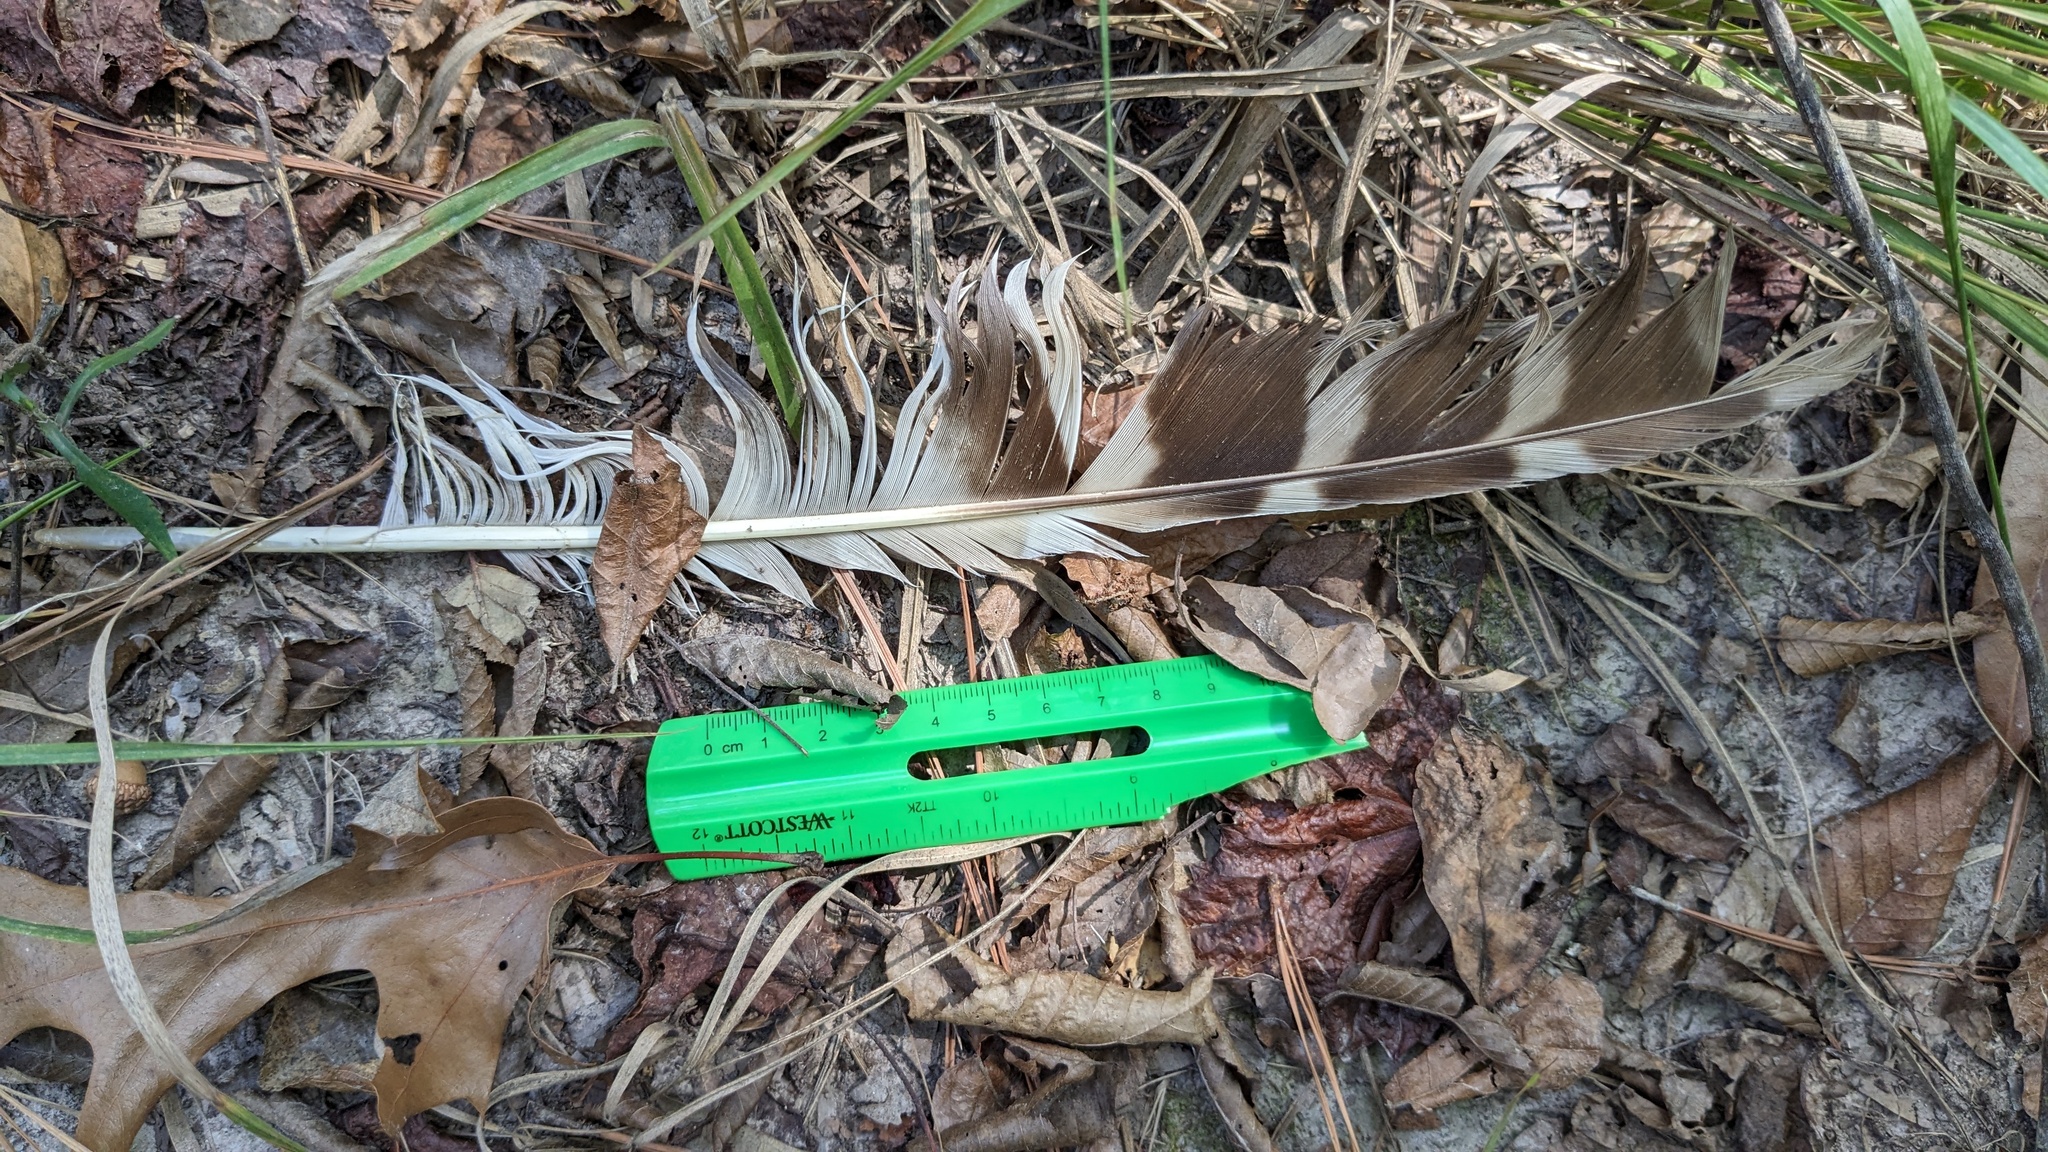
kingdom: Animalia
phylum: Chordata
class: Aves
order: Strigiformes
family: Strigidae
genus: Strix
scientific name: Strix varia
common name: Barred owl
